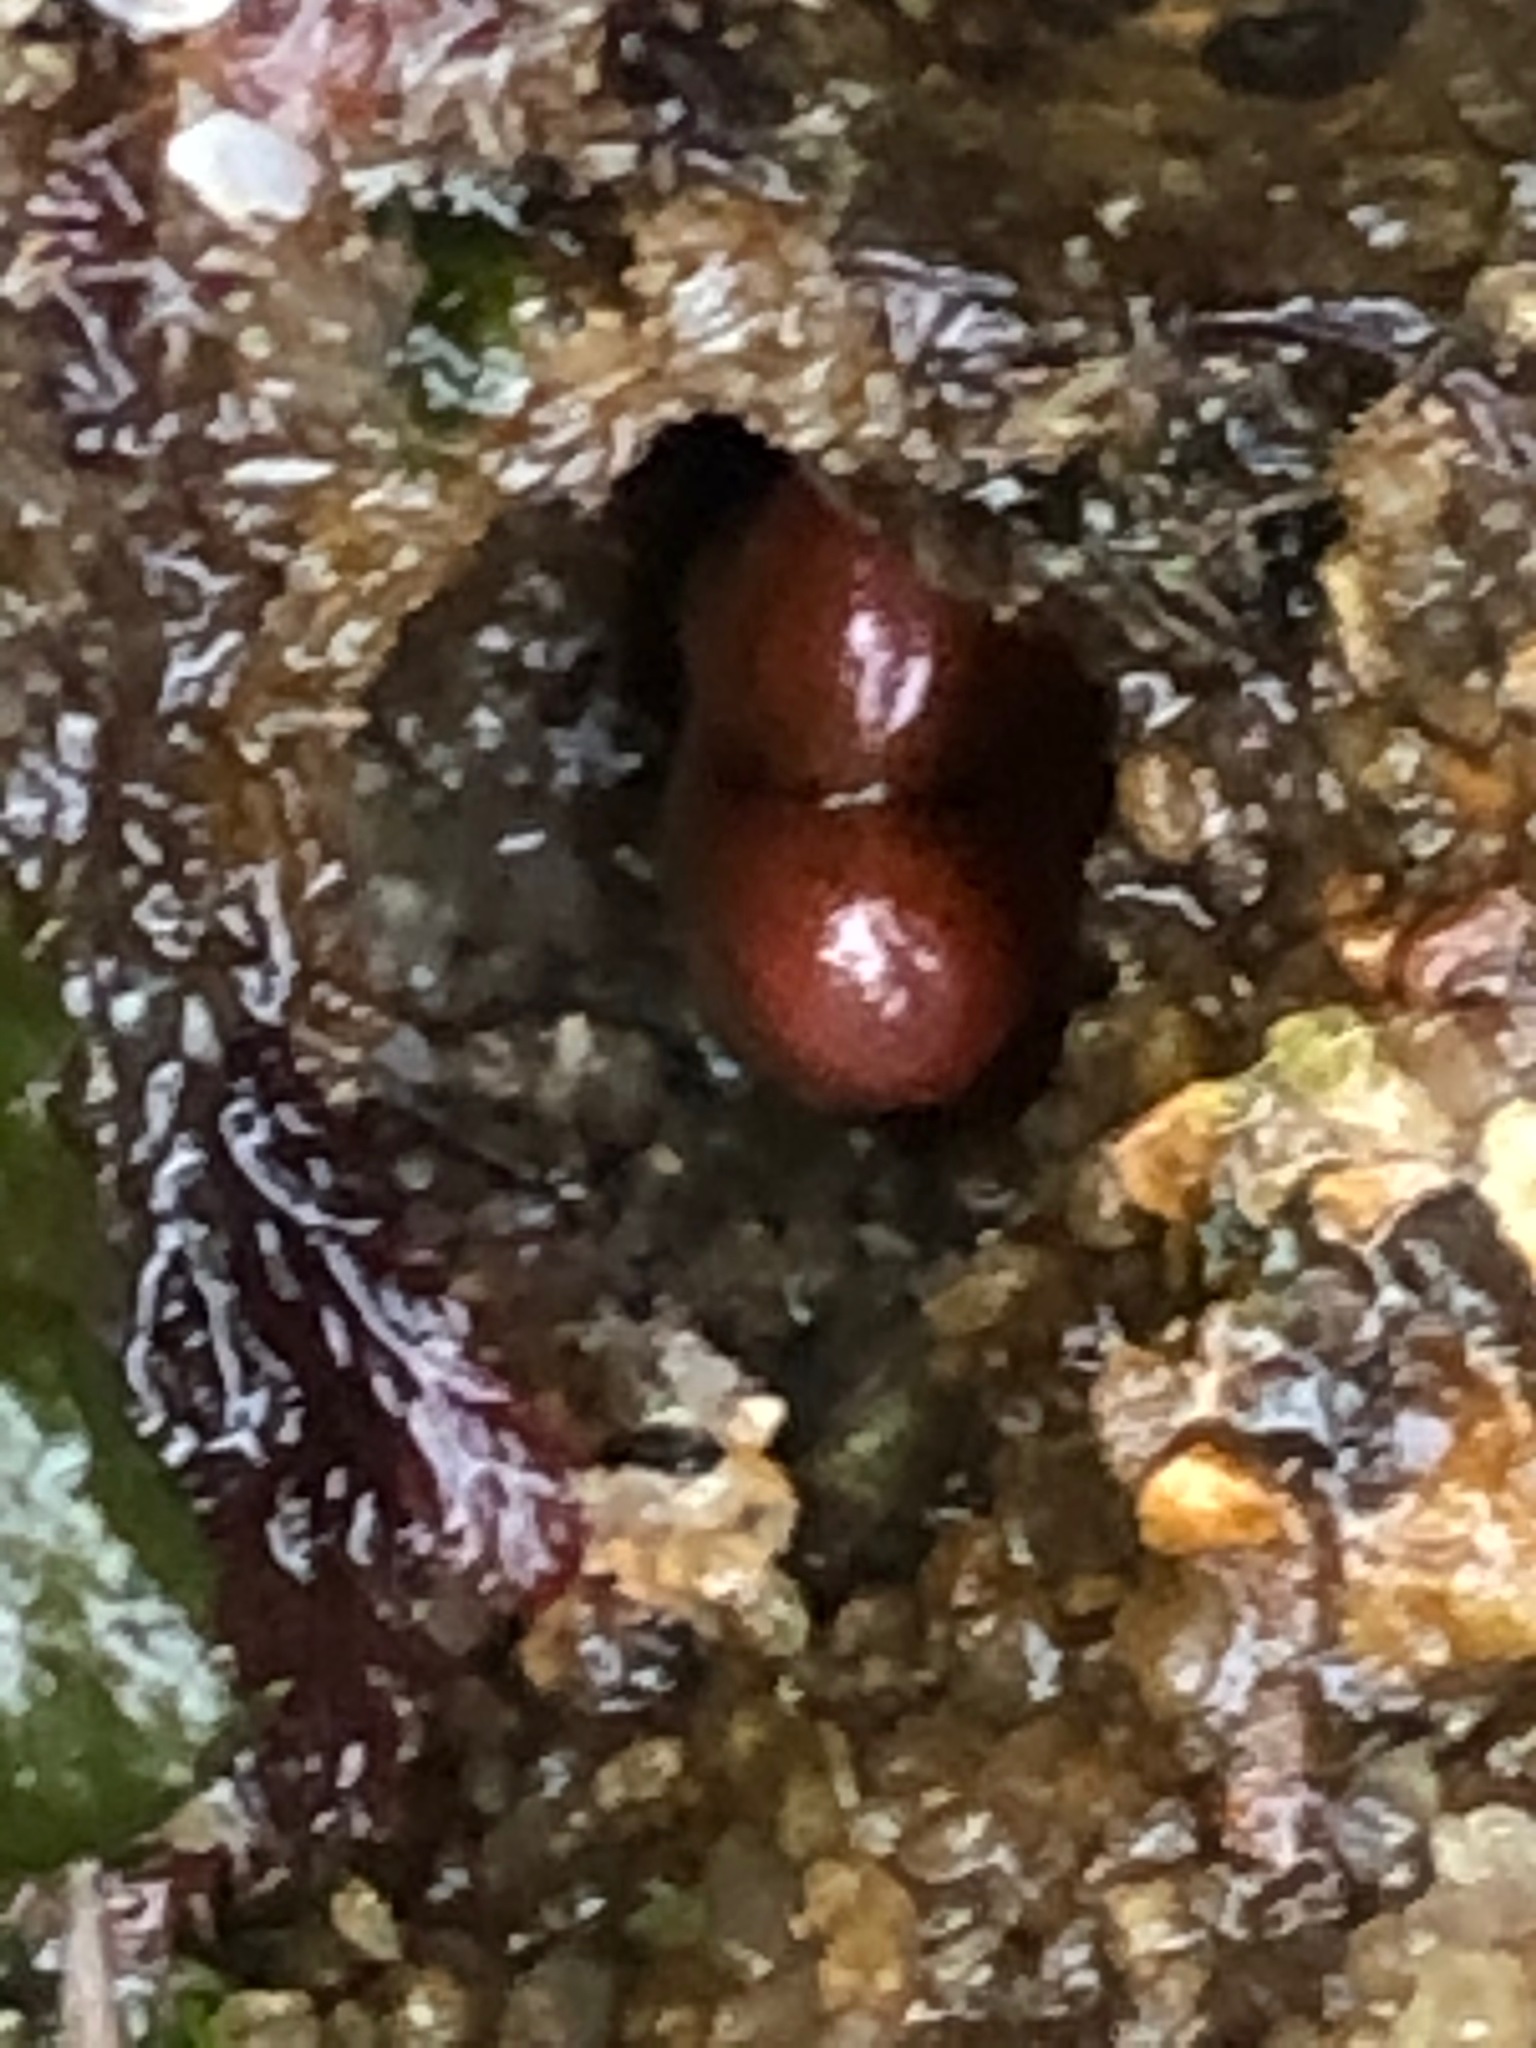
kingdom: Animalia
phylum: Mollusca
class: Bivalvia
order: Adapedonta
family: Hiatellidae
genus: Hiatella
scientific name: Hiatella arctica
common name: Arctic hiatella
